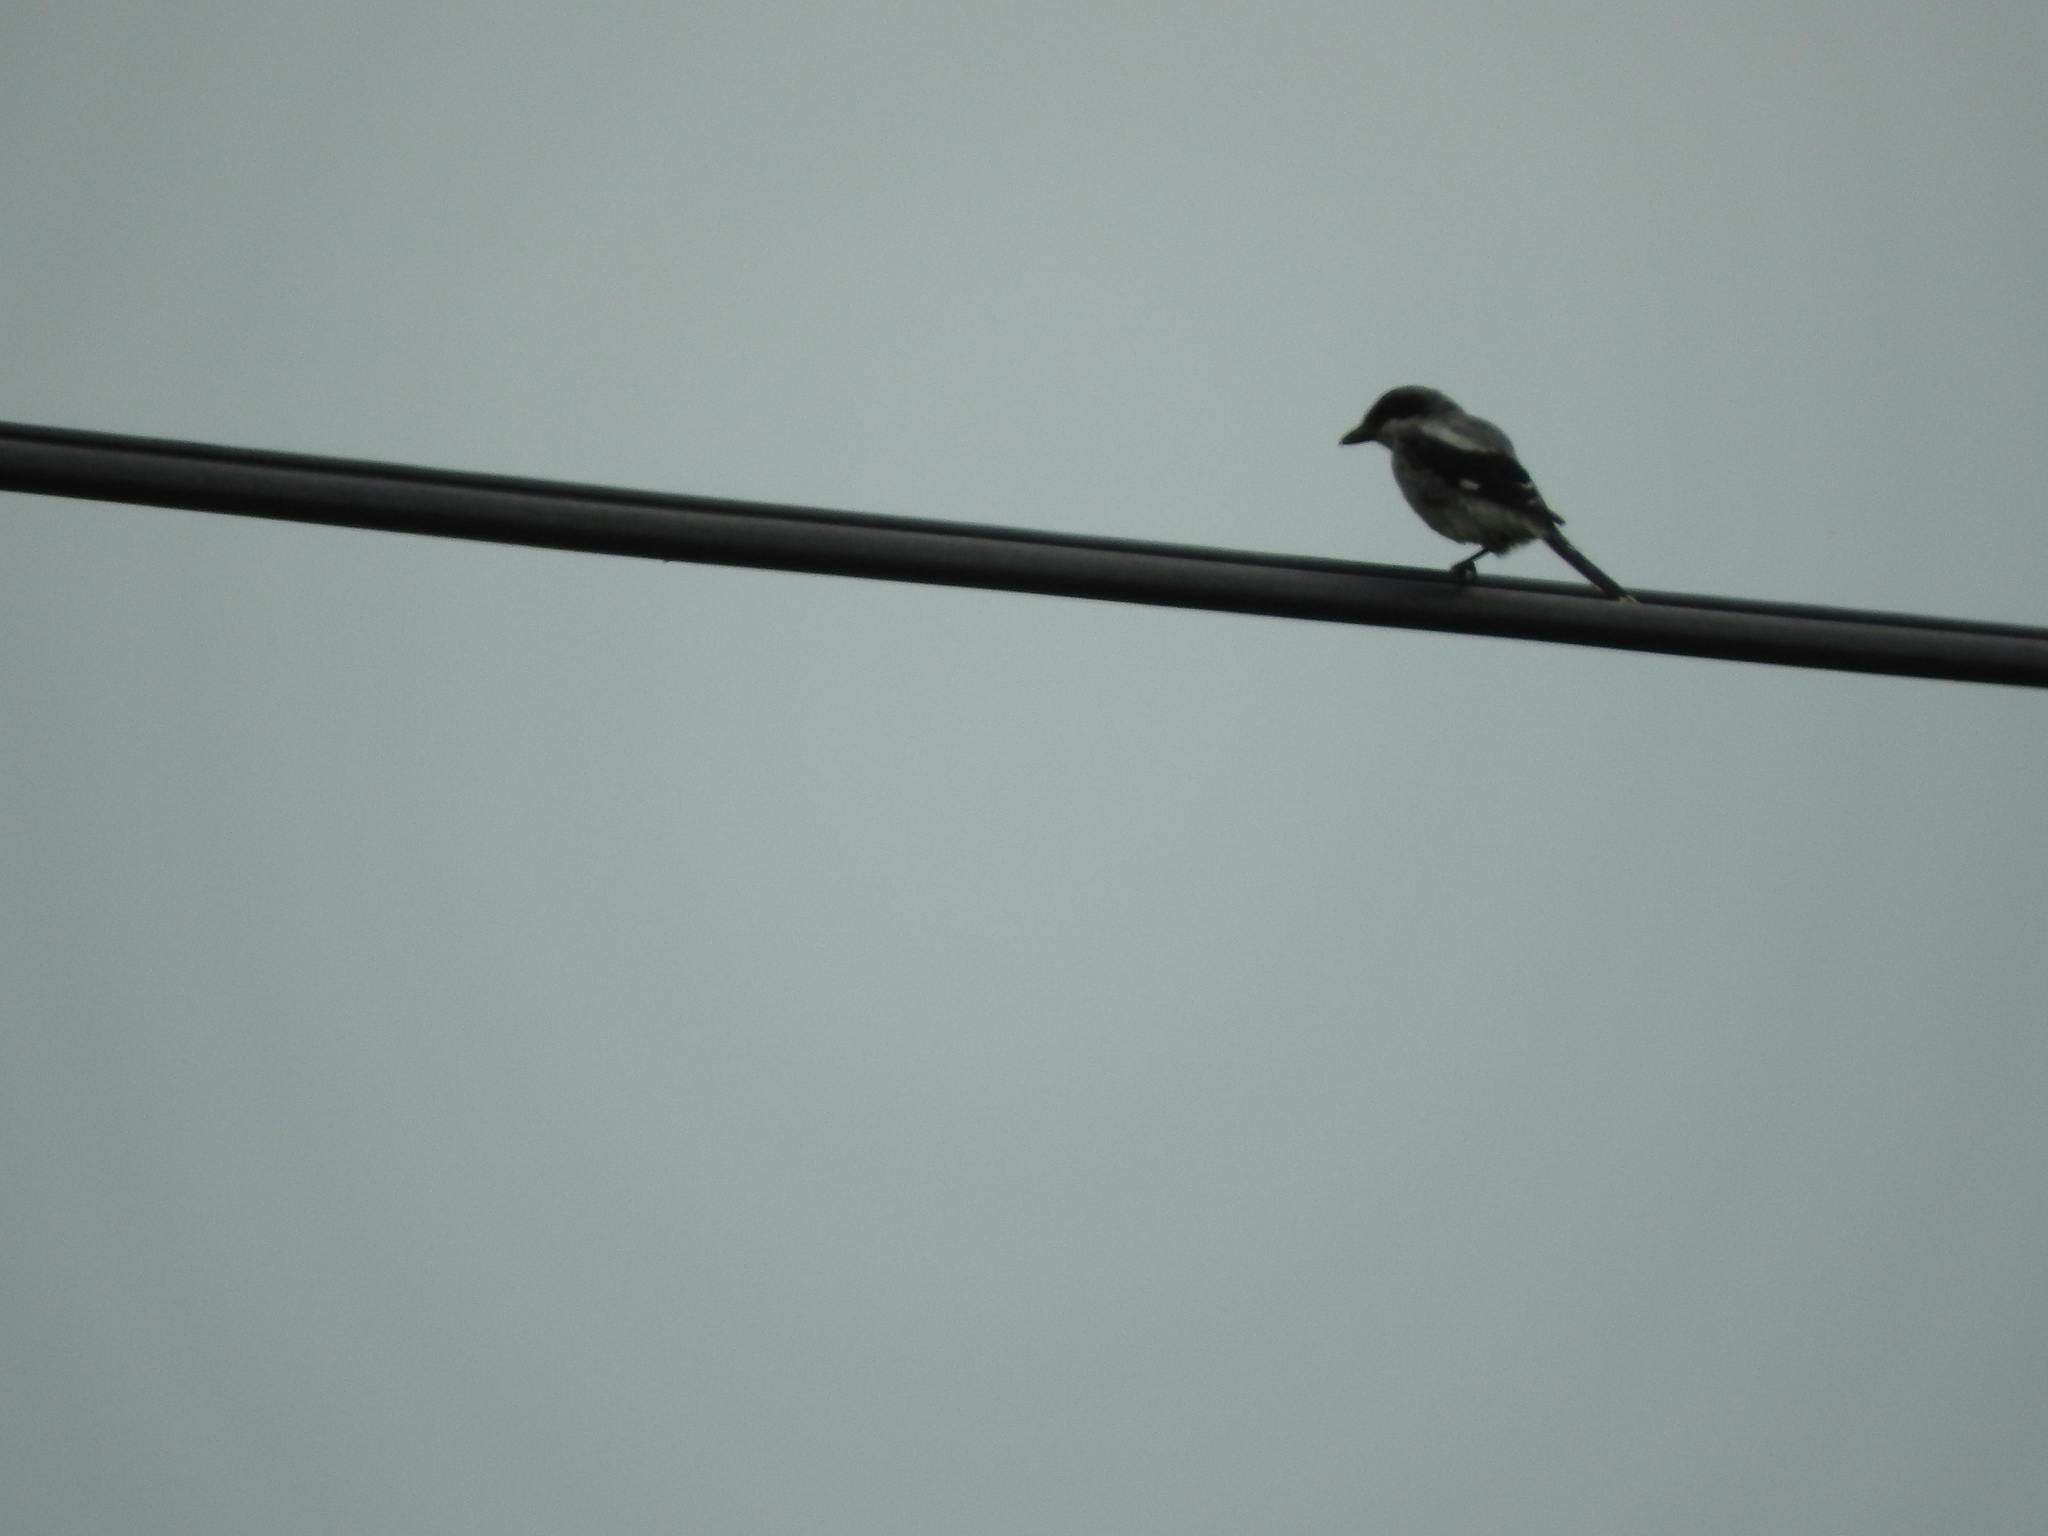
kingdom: Animalia
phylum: Chordata
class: Aves
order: Passeriformes
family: Laniidae
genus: Lanius
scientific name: Lanius ludovicianus
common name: Loggerhead shrike
